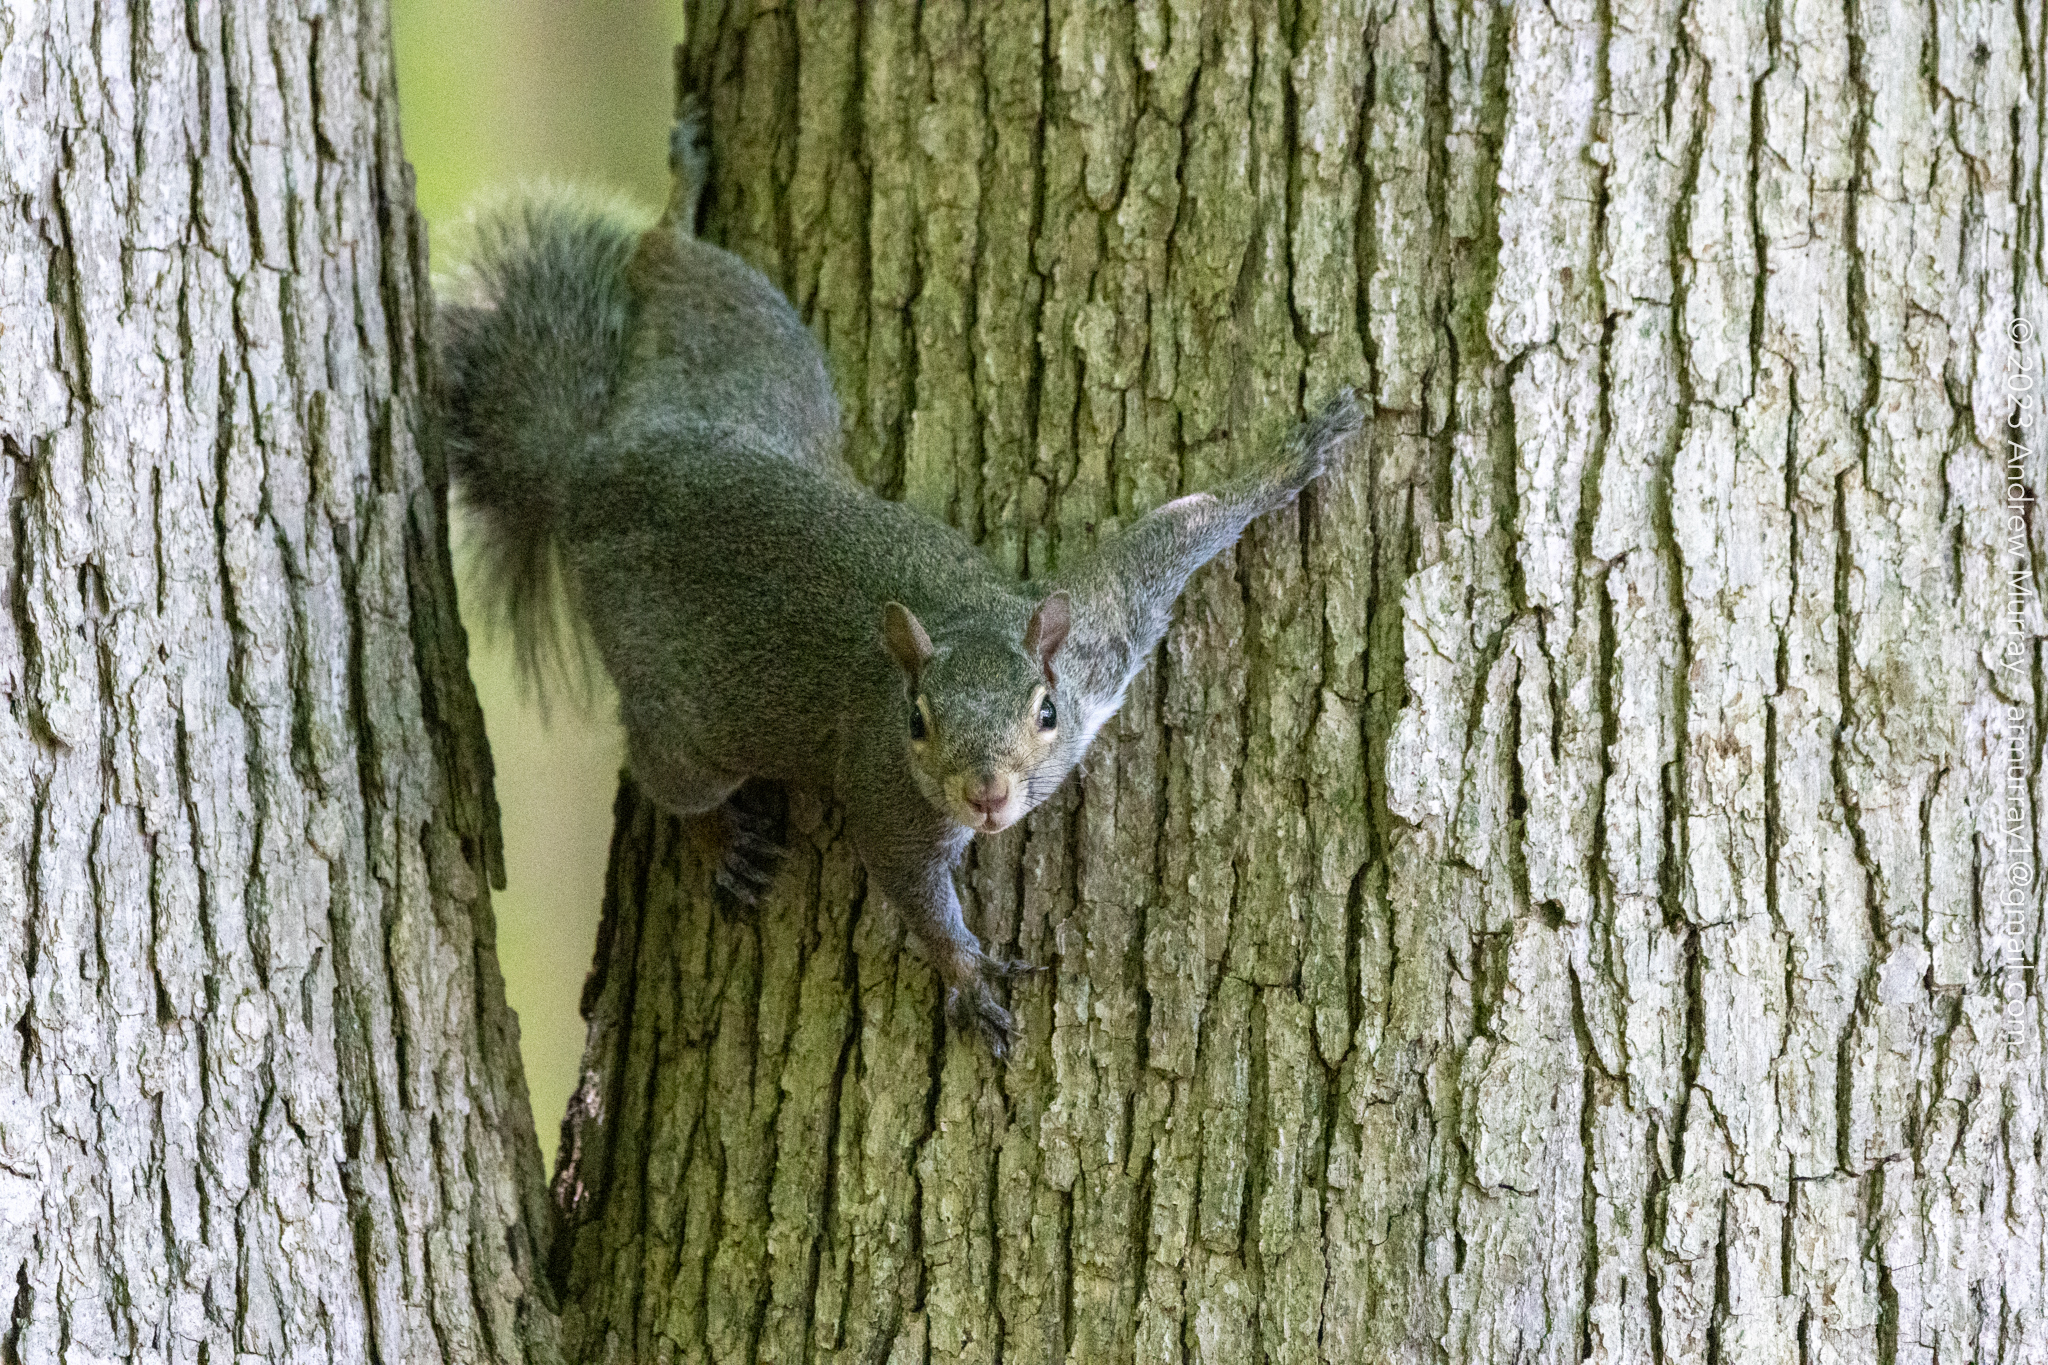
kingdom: Animalia
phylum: Chordata
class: Mammalia
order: Rodentia
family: Sciuridae
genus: Sciurus
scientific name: Sciurus carolinensis
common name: Eastern gray squirrel
